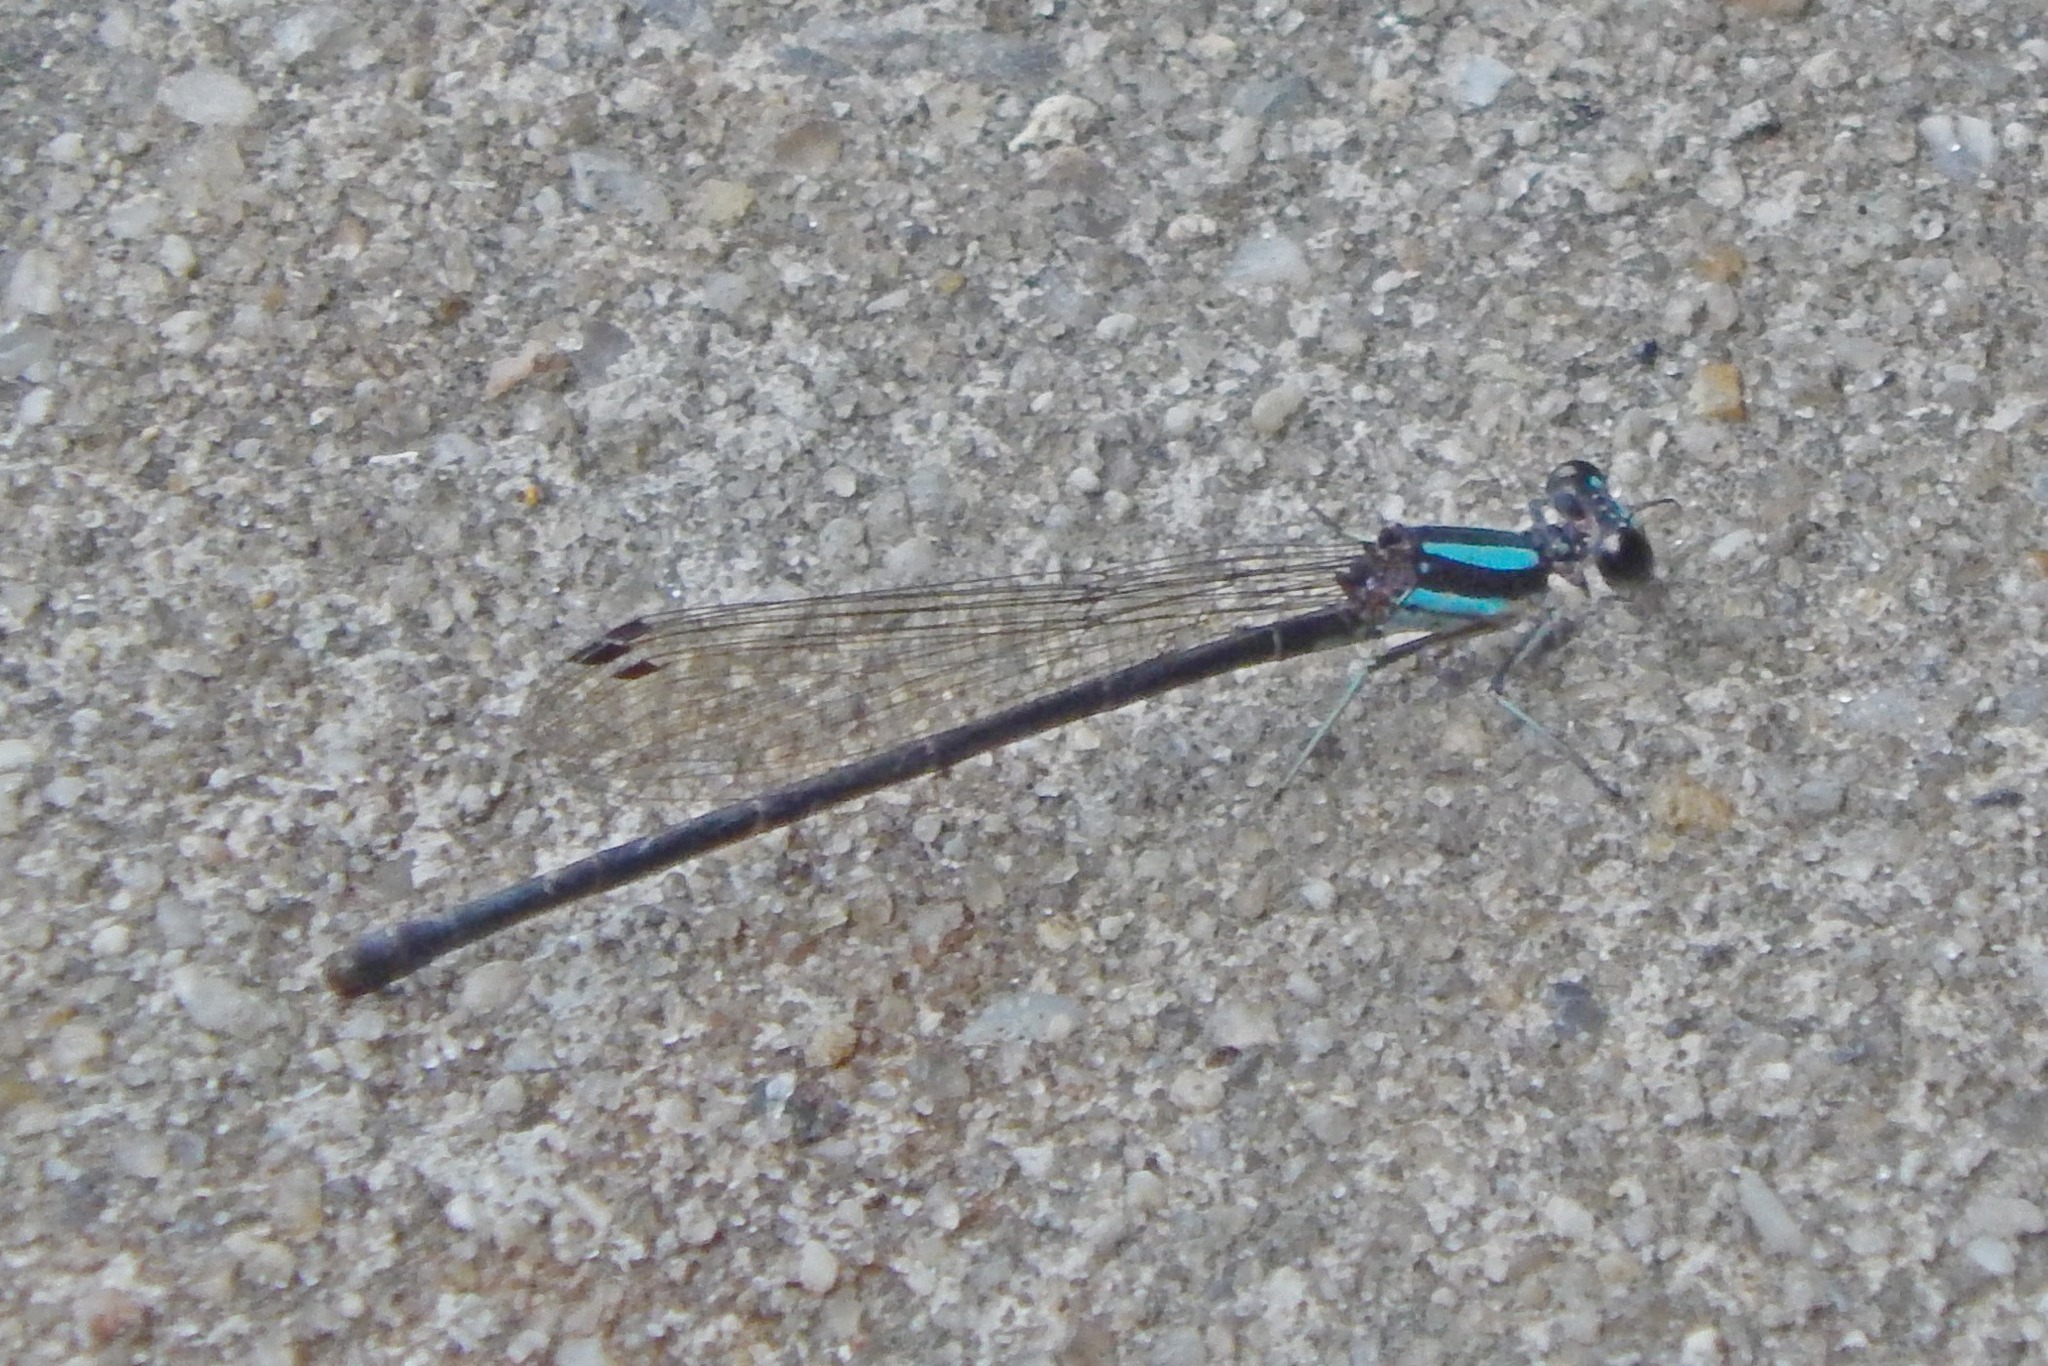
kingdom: Animalia
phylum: Arthropoda
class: Insecta
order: Odonata
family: Coenagrionidae
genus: Argia
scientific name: Argia tibialis
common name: Blue-tipped dancer
